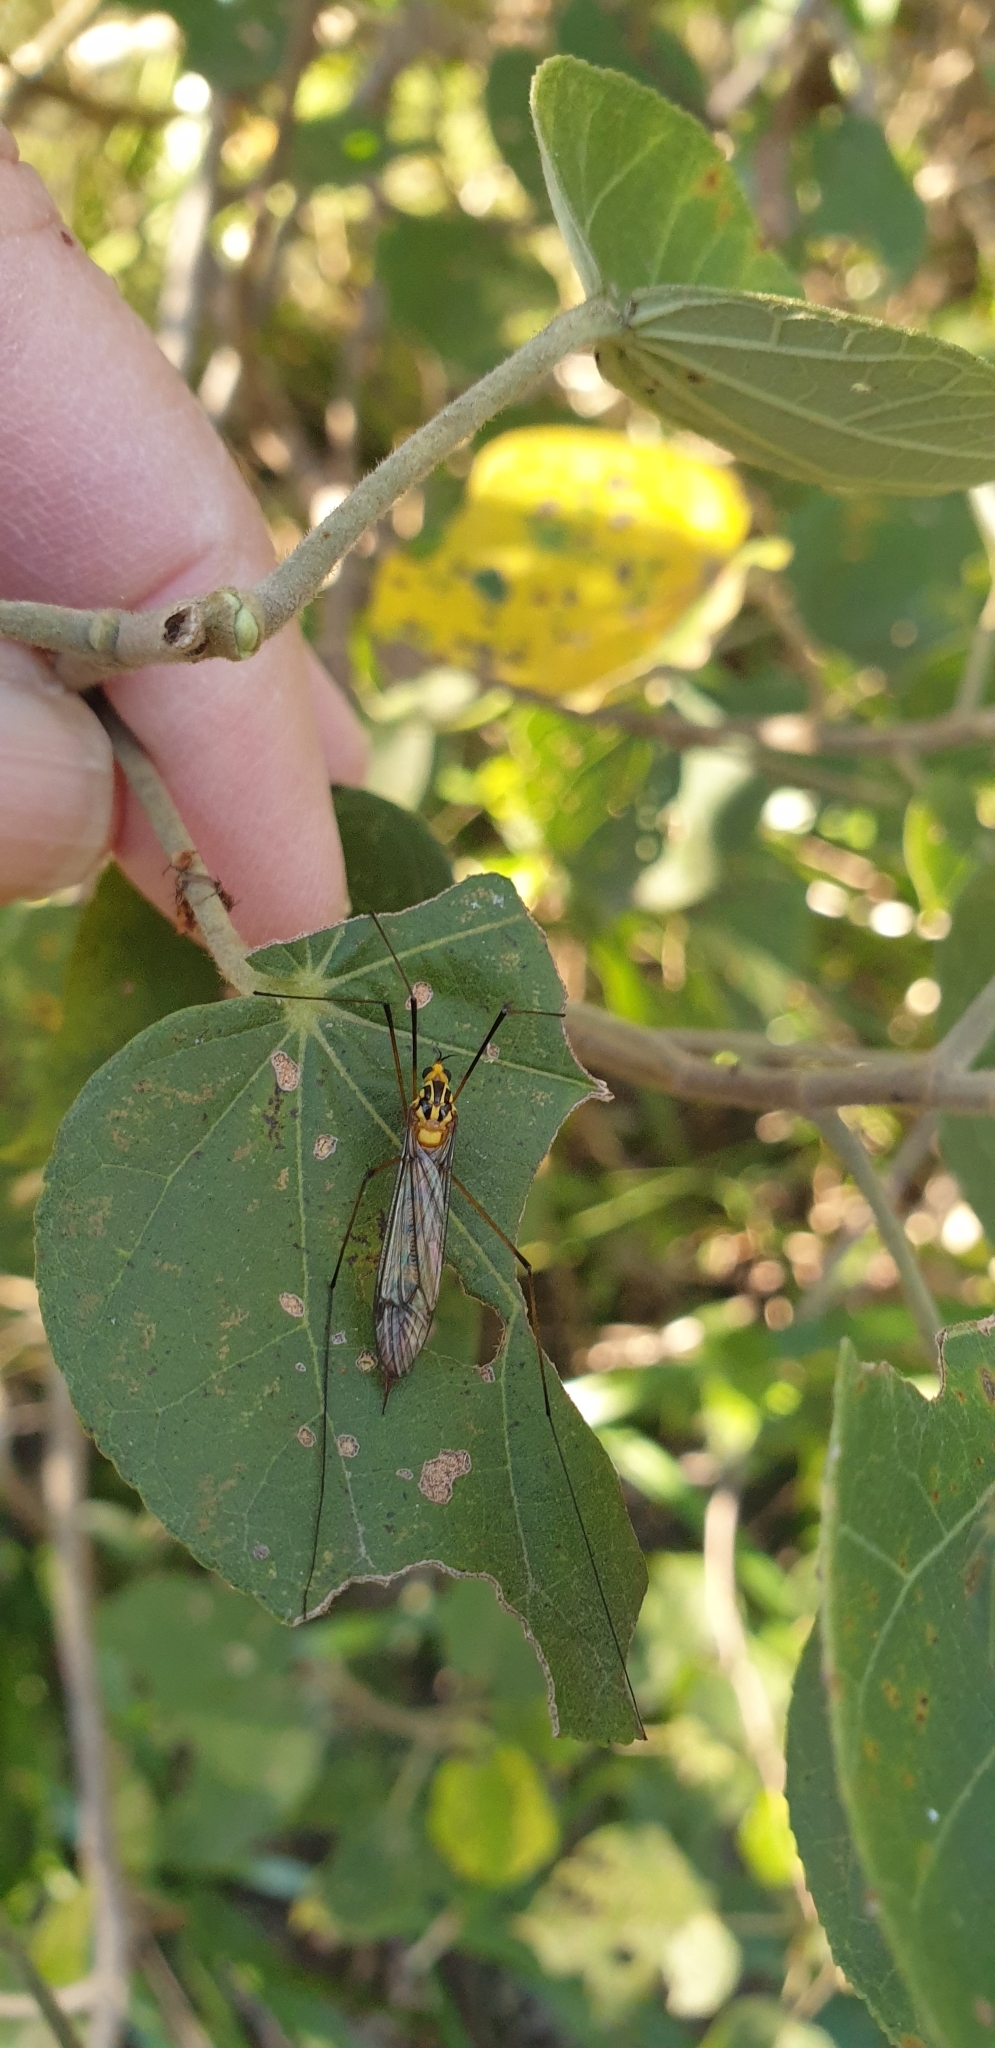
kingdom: Animalia
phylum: Arthropoda
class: Insecta
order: Diptera
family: Tipulidae
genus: Nephrotoma
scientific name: Nephrotoma australasiae
